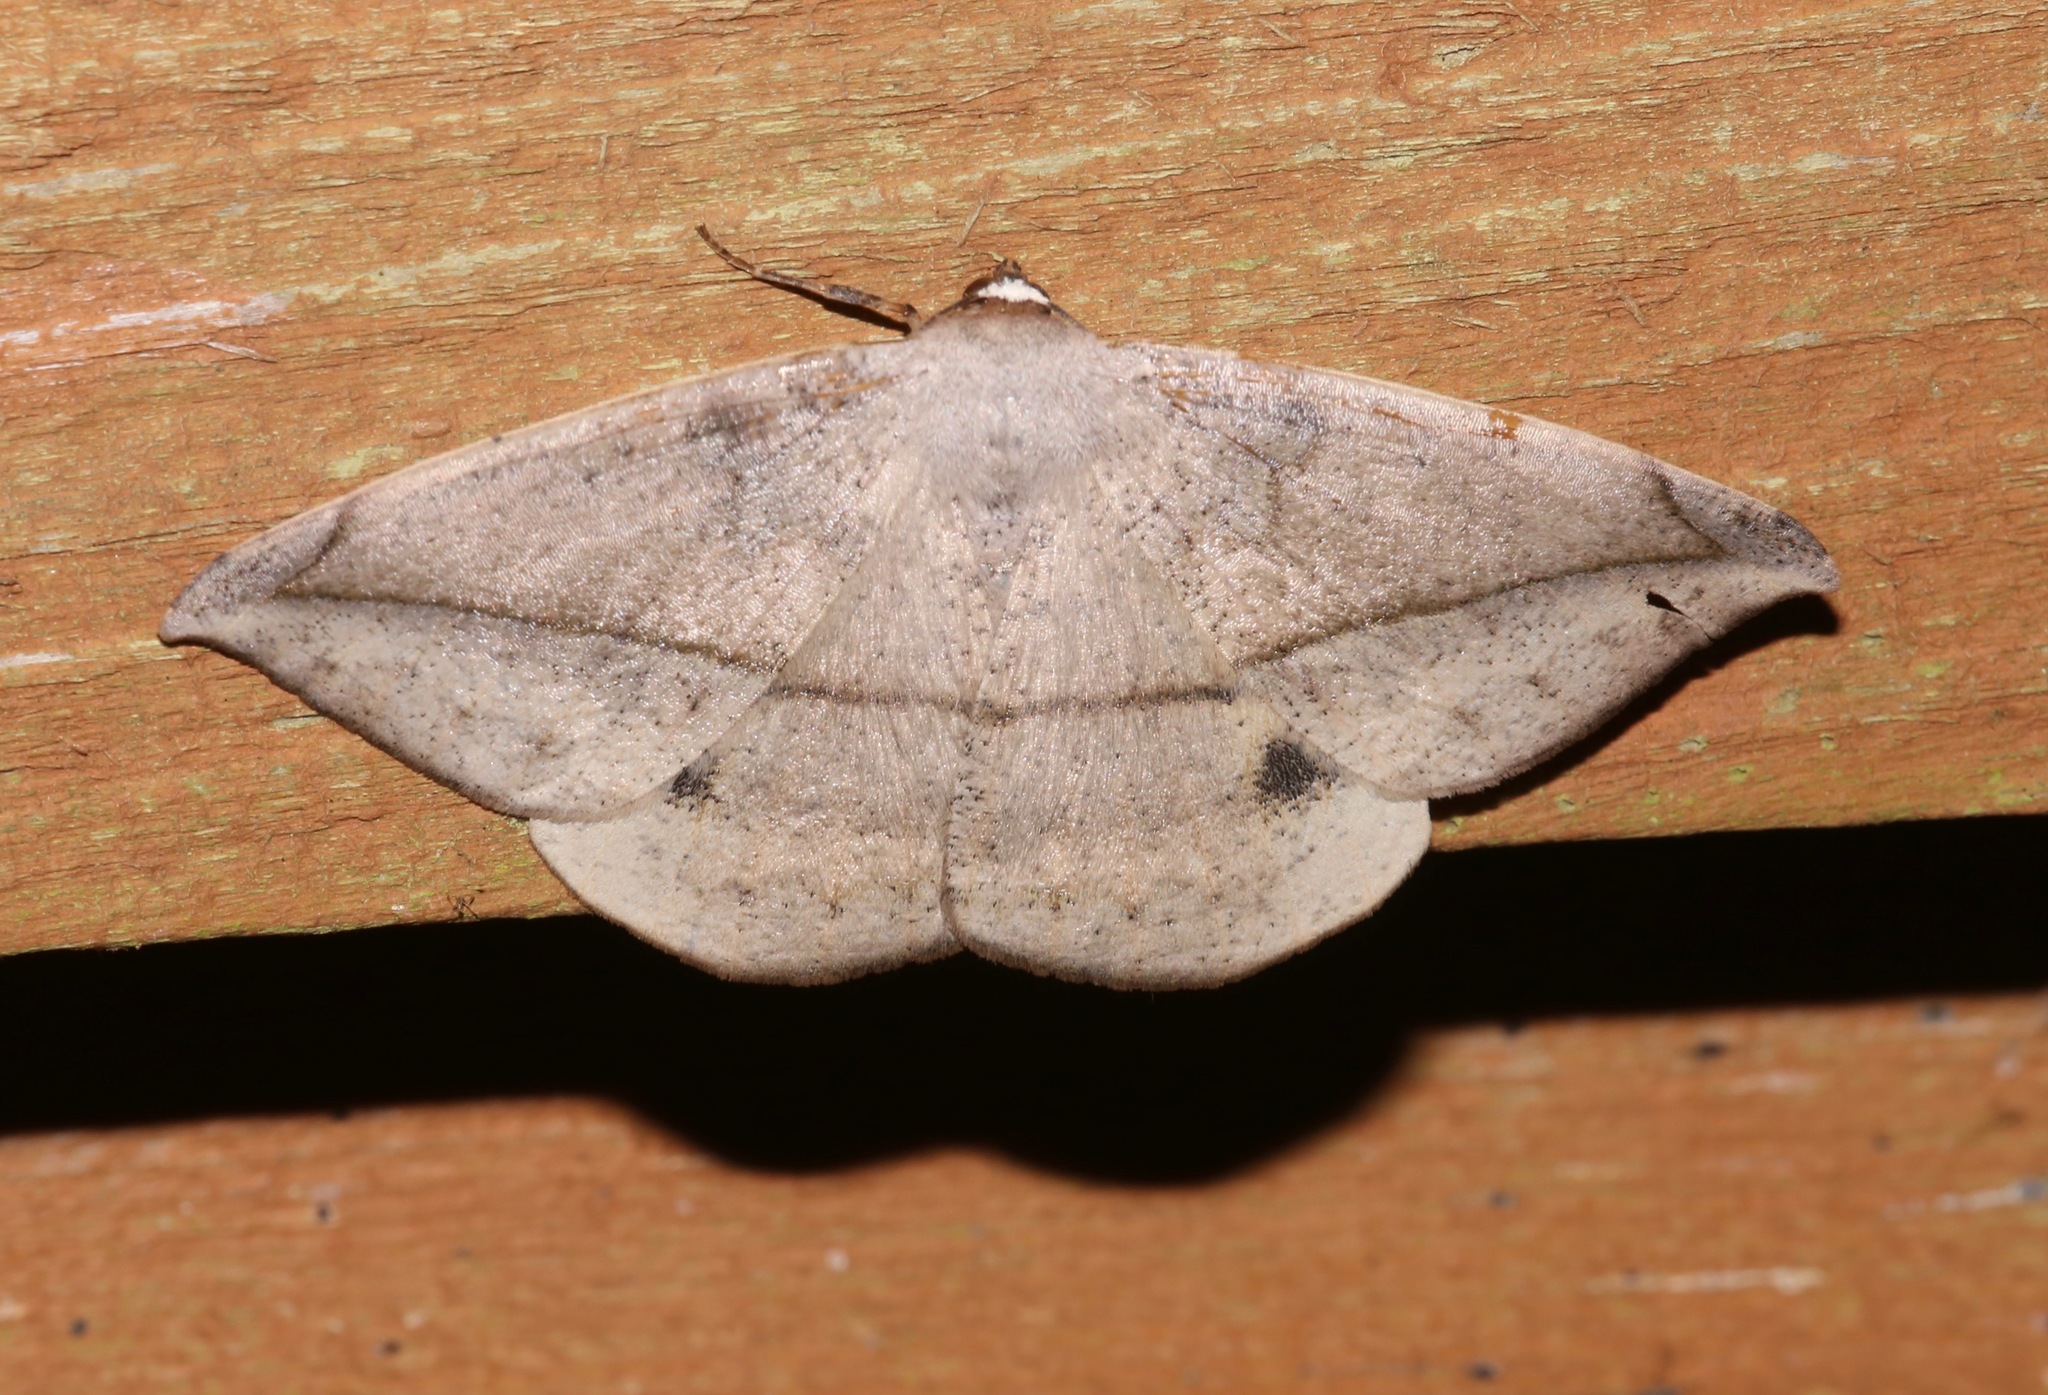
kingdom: Animalia
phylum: Arthropoda
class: Insecta
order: Lepidoptera
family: Geometridae
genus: Oxydia
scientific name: Oxydia vesulia
